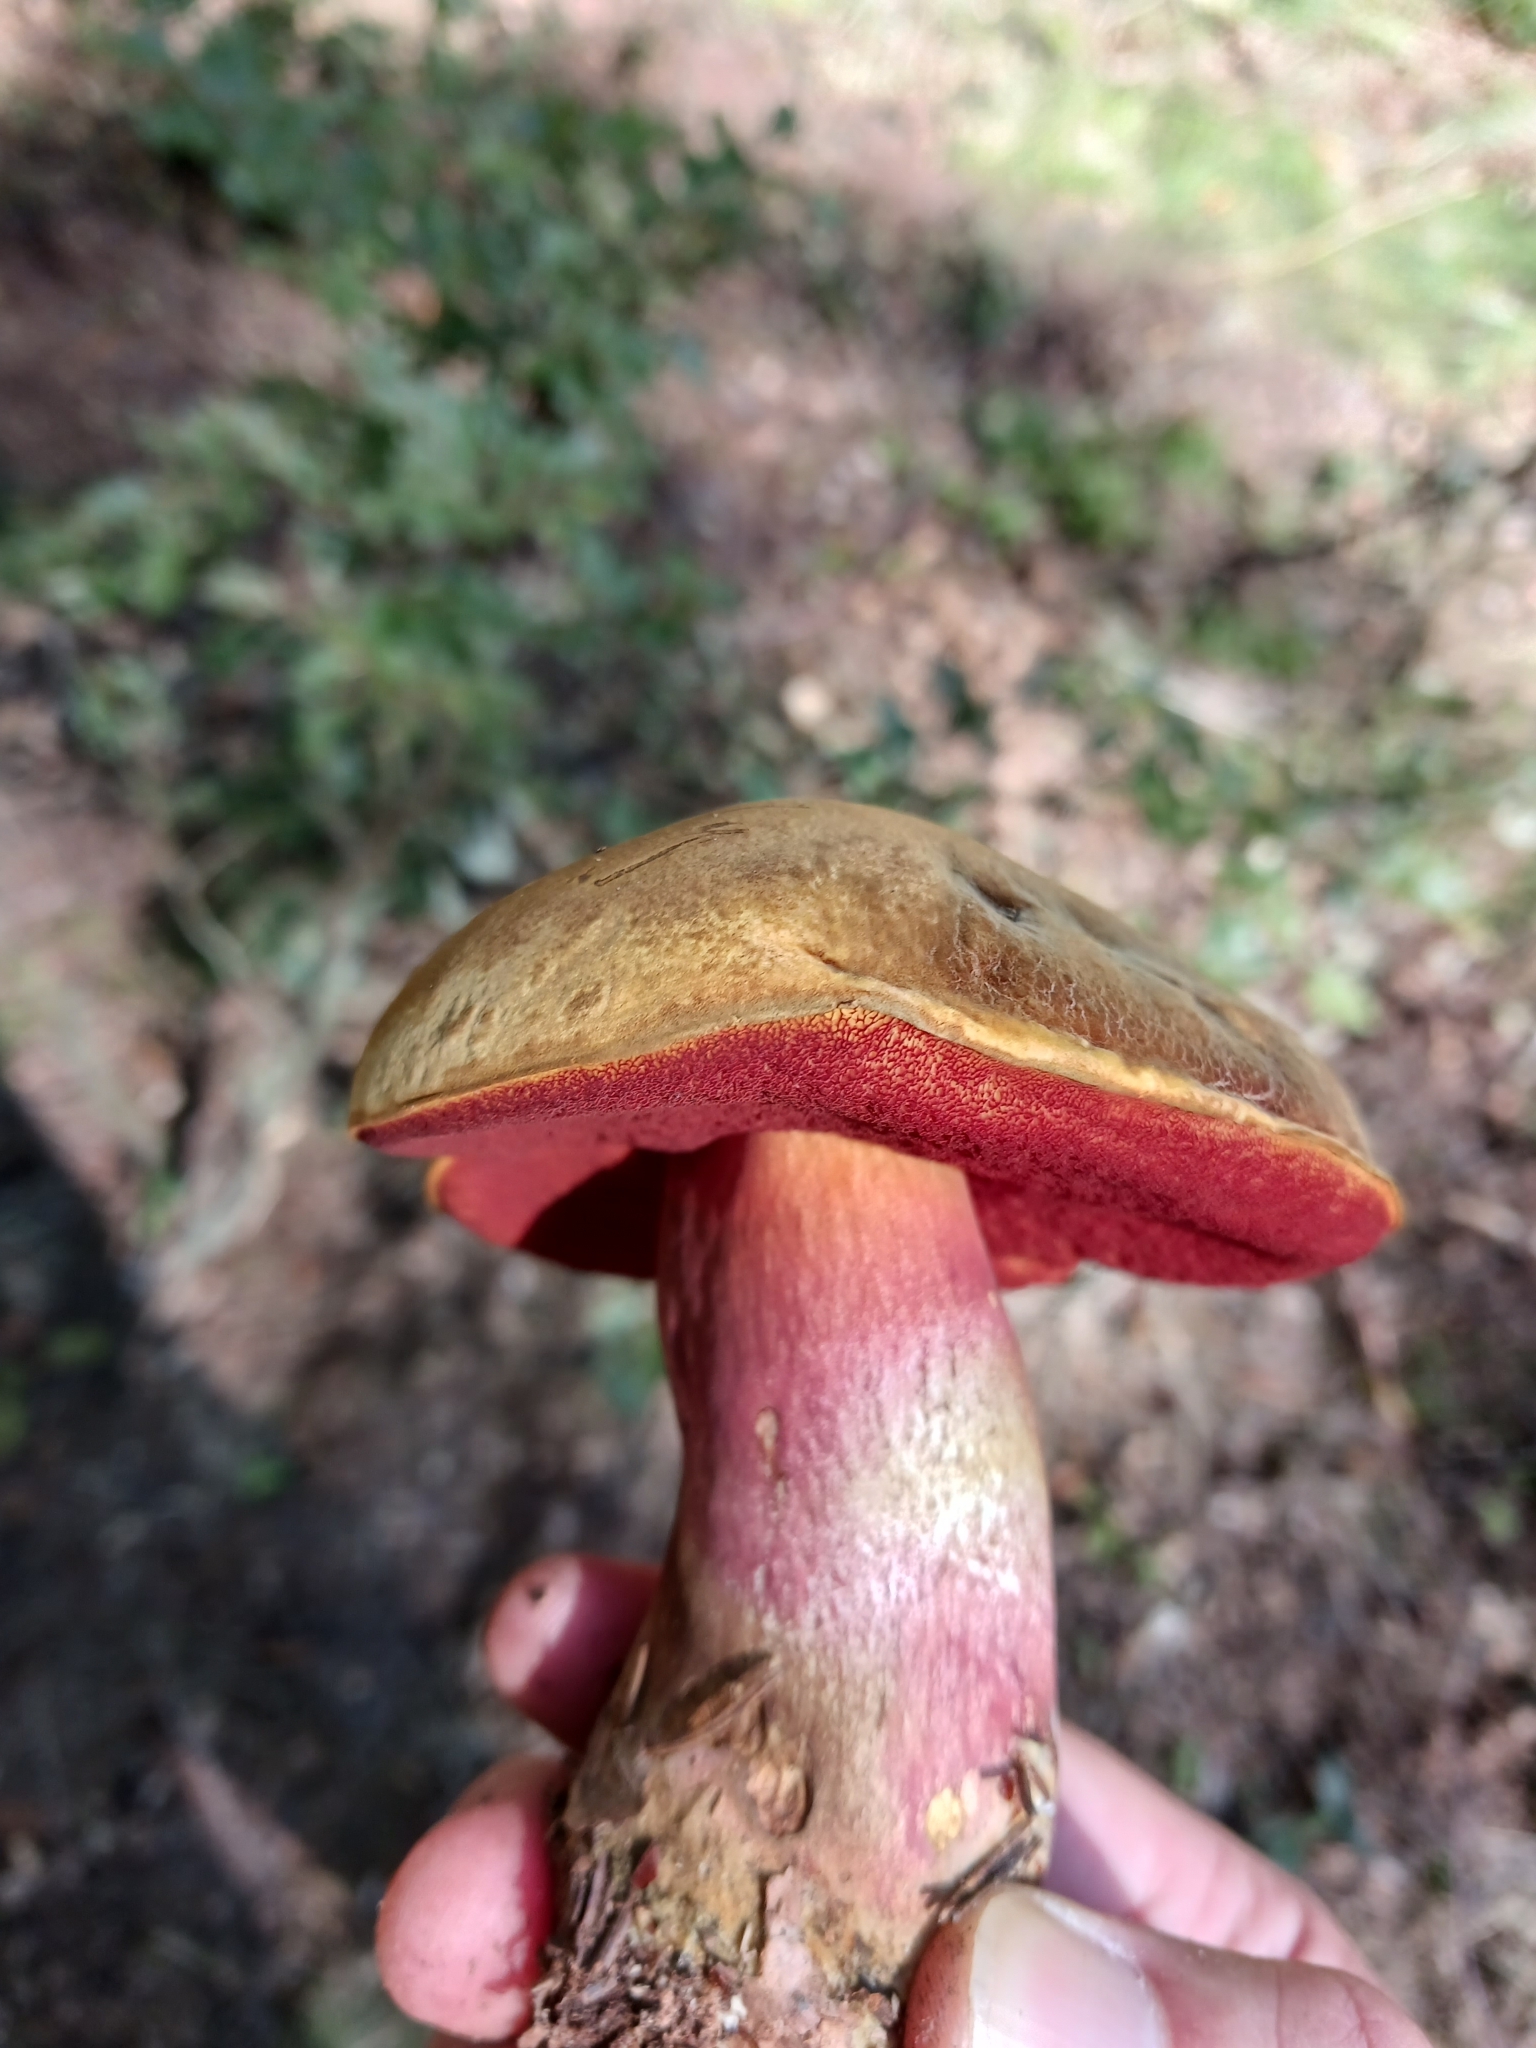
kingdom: Fungi
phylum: Basidiomycota
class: Agaricomycetes
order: Boletales
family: Boletaceae
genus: Neoboletus
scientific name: Neoboletus erythropus
